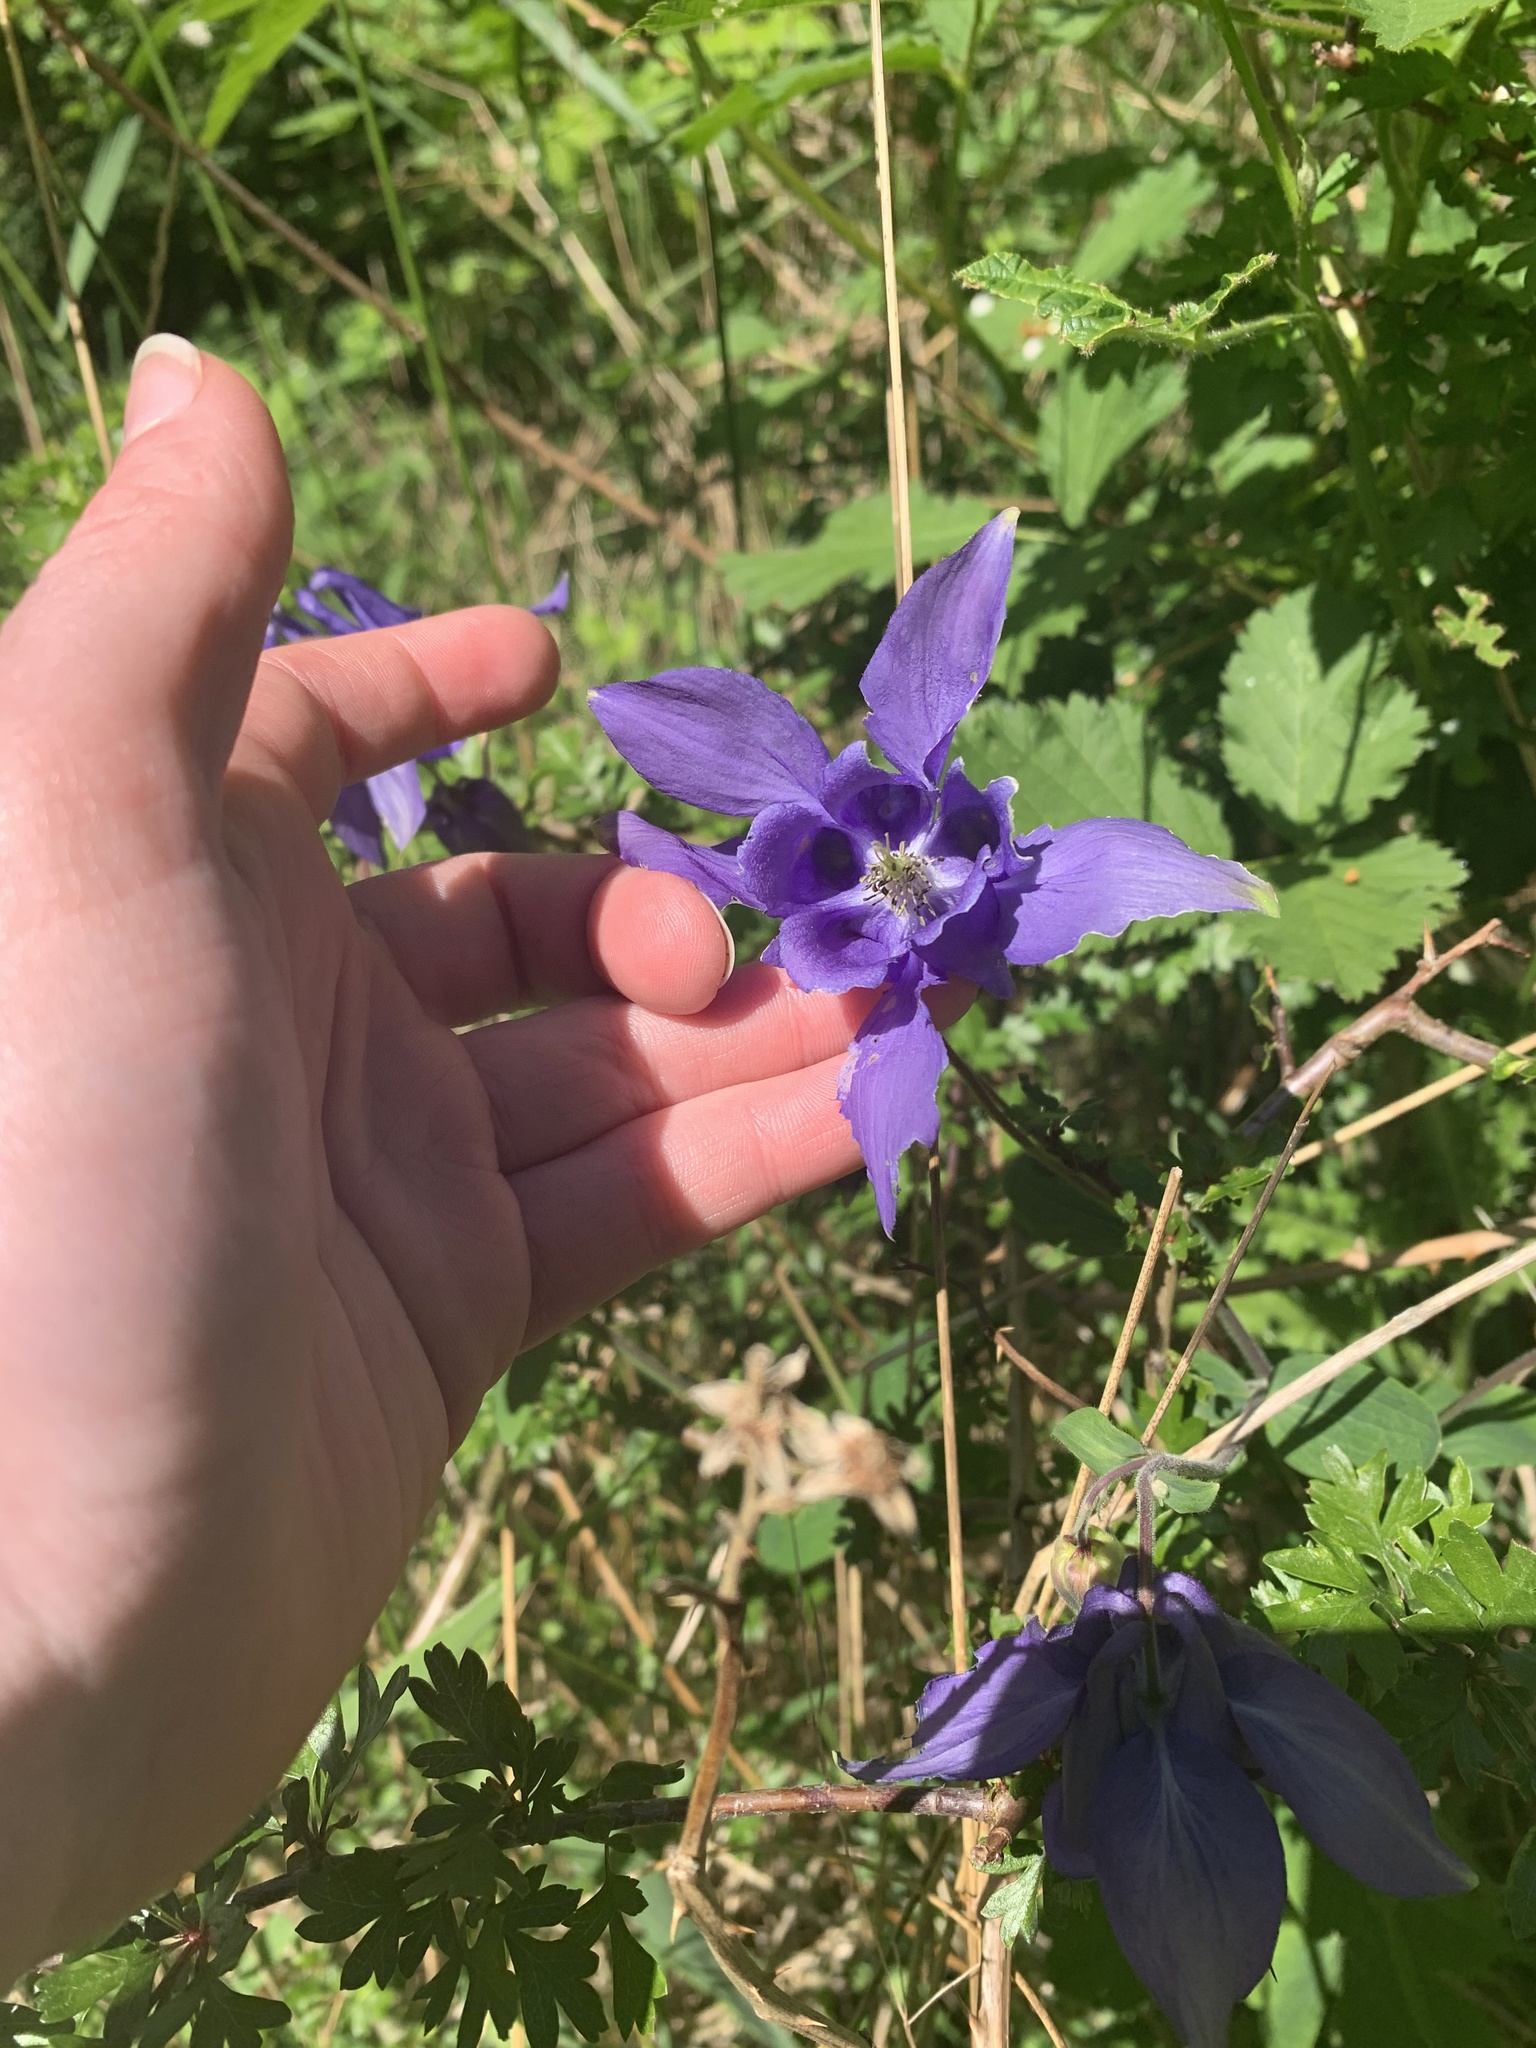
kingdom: Plantae
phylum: Tracheophyta
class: Magnoliopsida
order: Ranunculales
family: Ranunculaceae
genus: Aquilegia
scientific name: Aquilegia vulgaris
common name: Columbine
